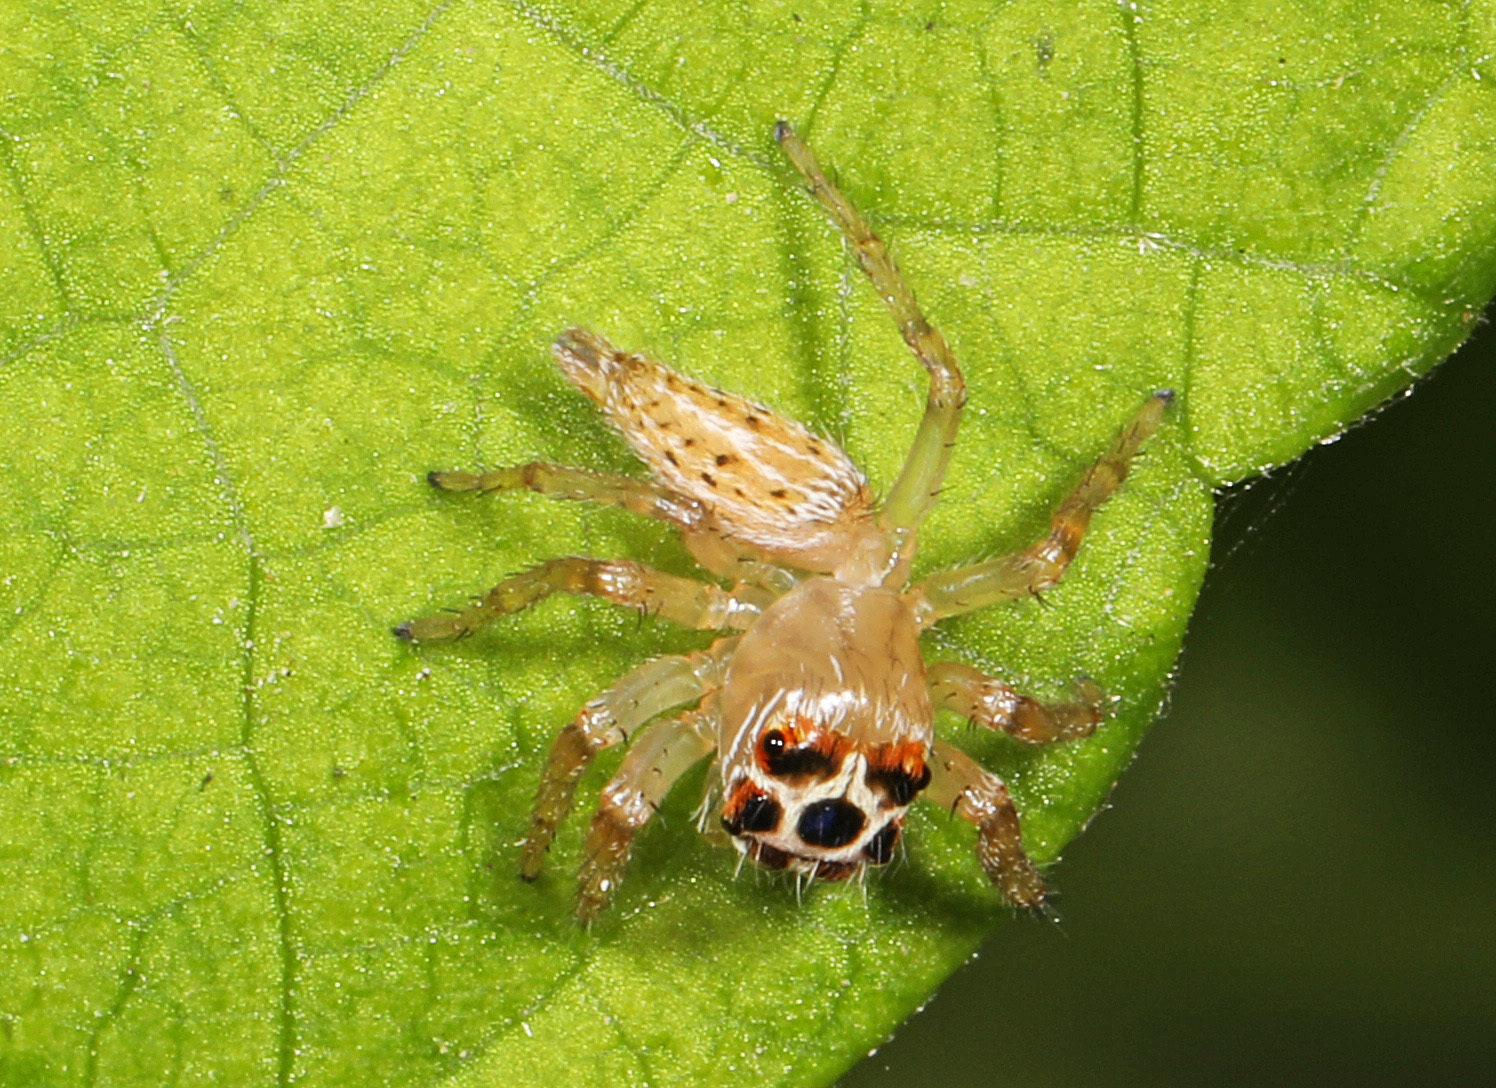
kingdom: Animalia
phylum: Arthropoda
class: Arachnida
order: Araneae
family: Salticidae
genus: Colonus
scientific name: Colonus sylvanus
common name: Jumping spiders
